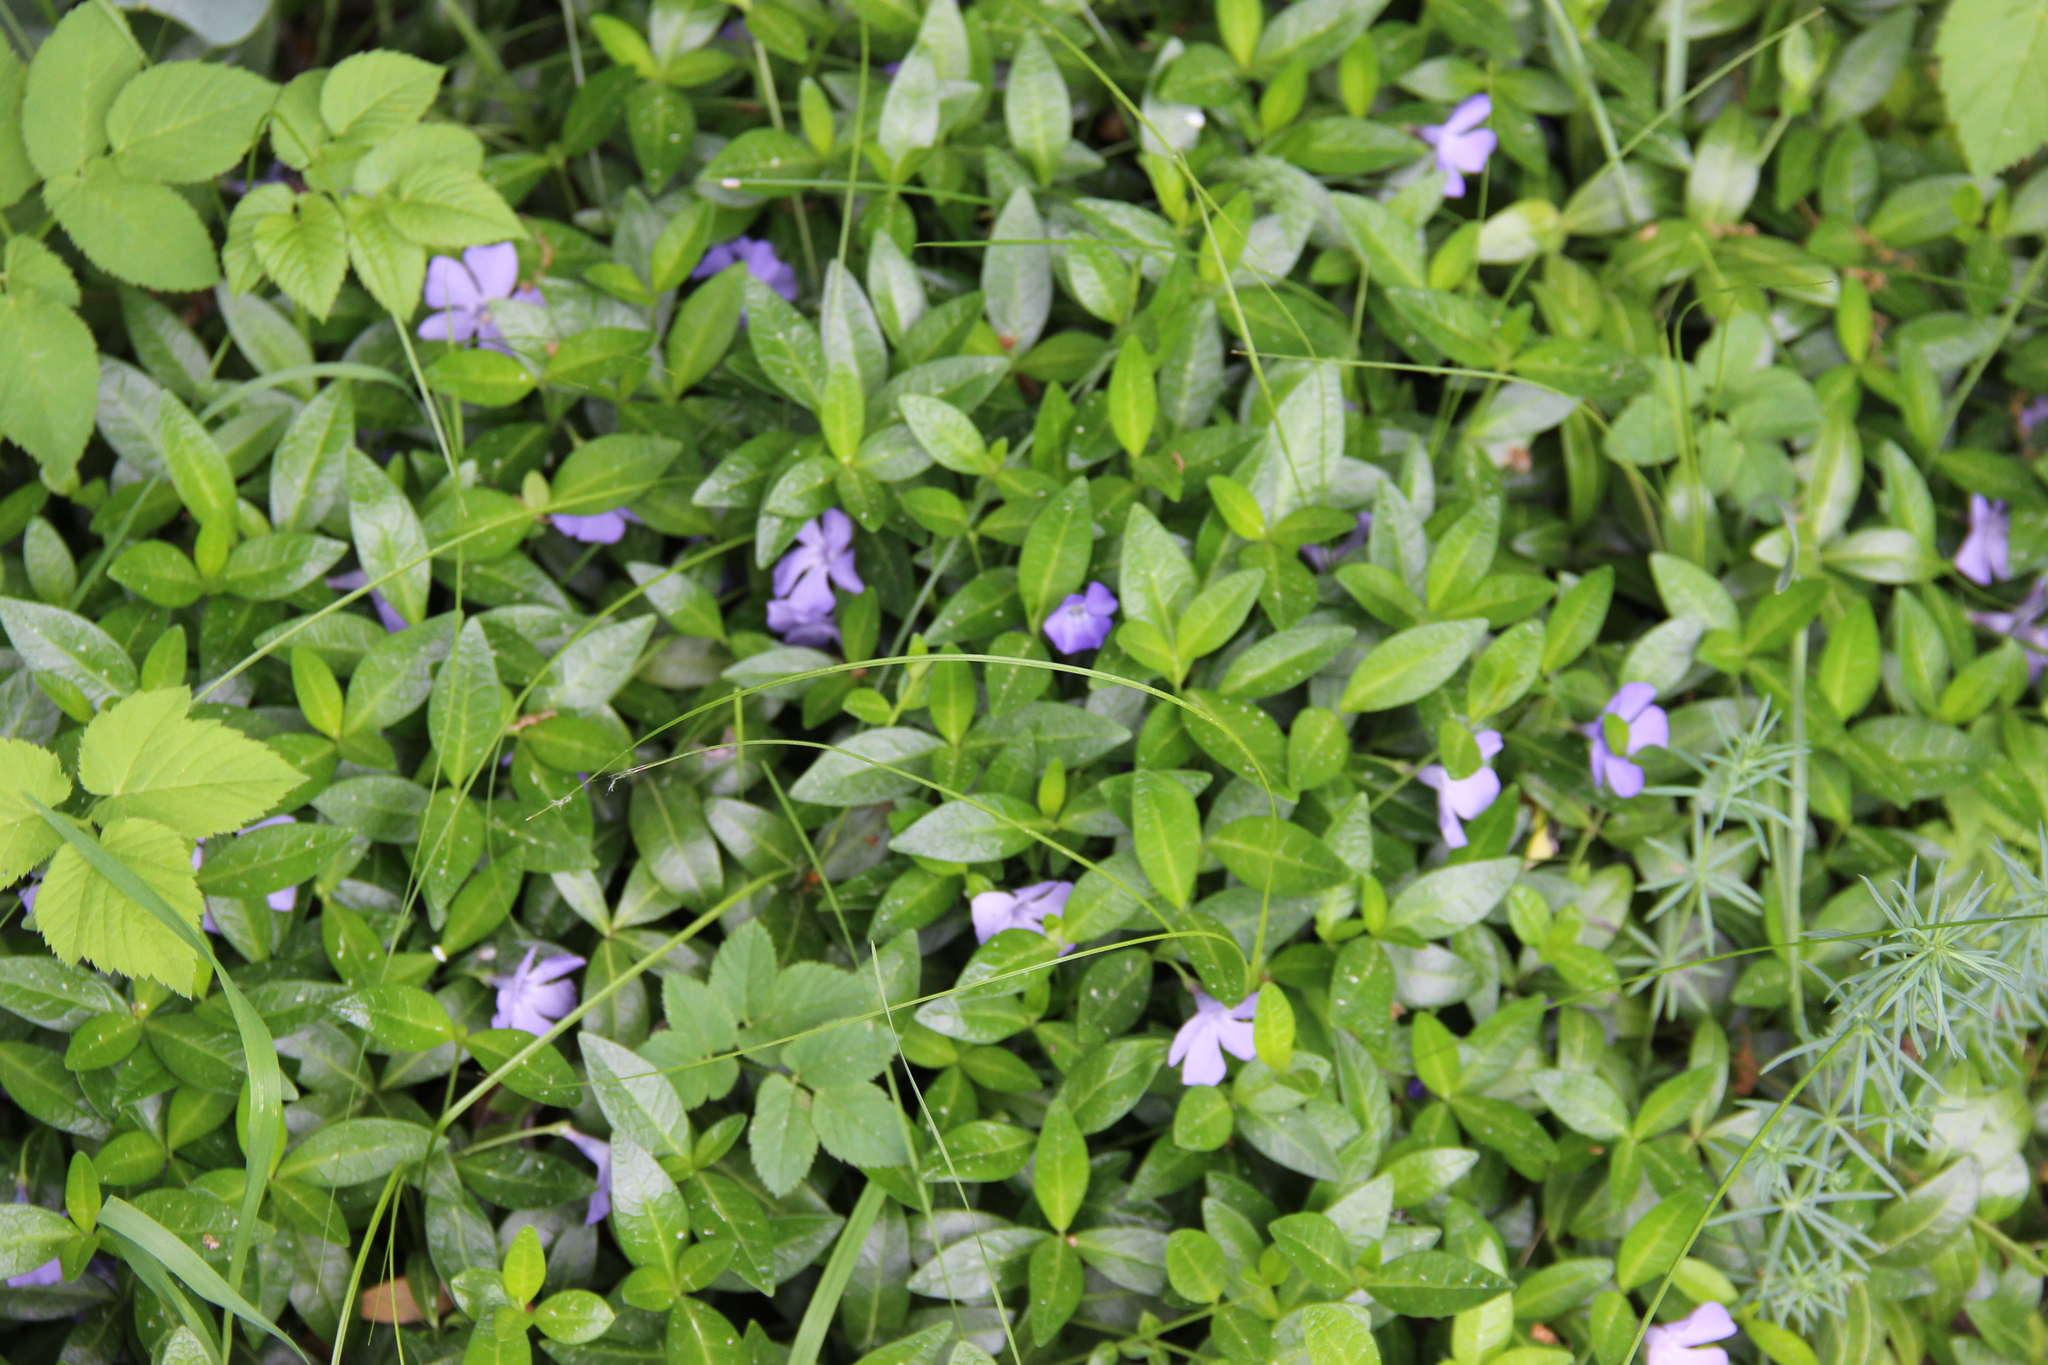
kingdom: Plantae
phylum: Tracheophyta
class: Magnoliopsida
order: Gentianales
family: Apocynaceae
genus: Vinca
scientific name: Vinca minor
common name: Lesser periwinkle
